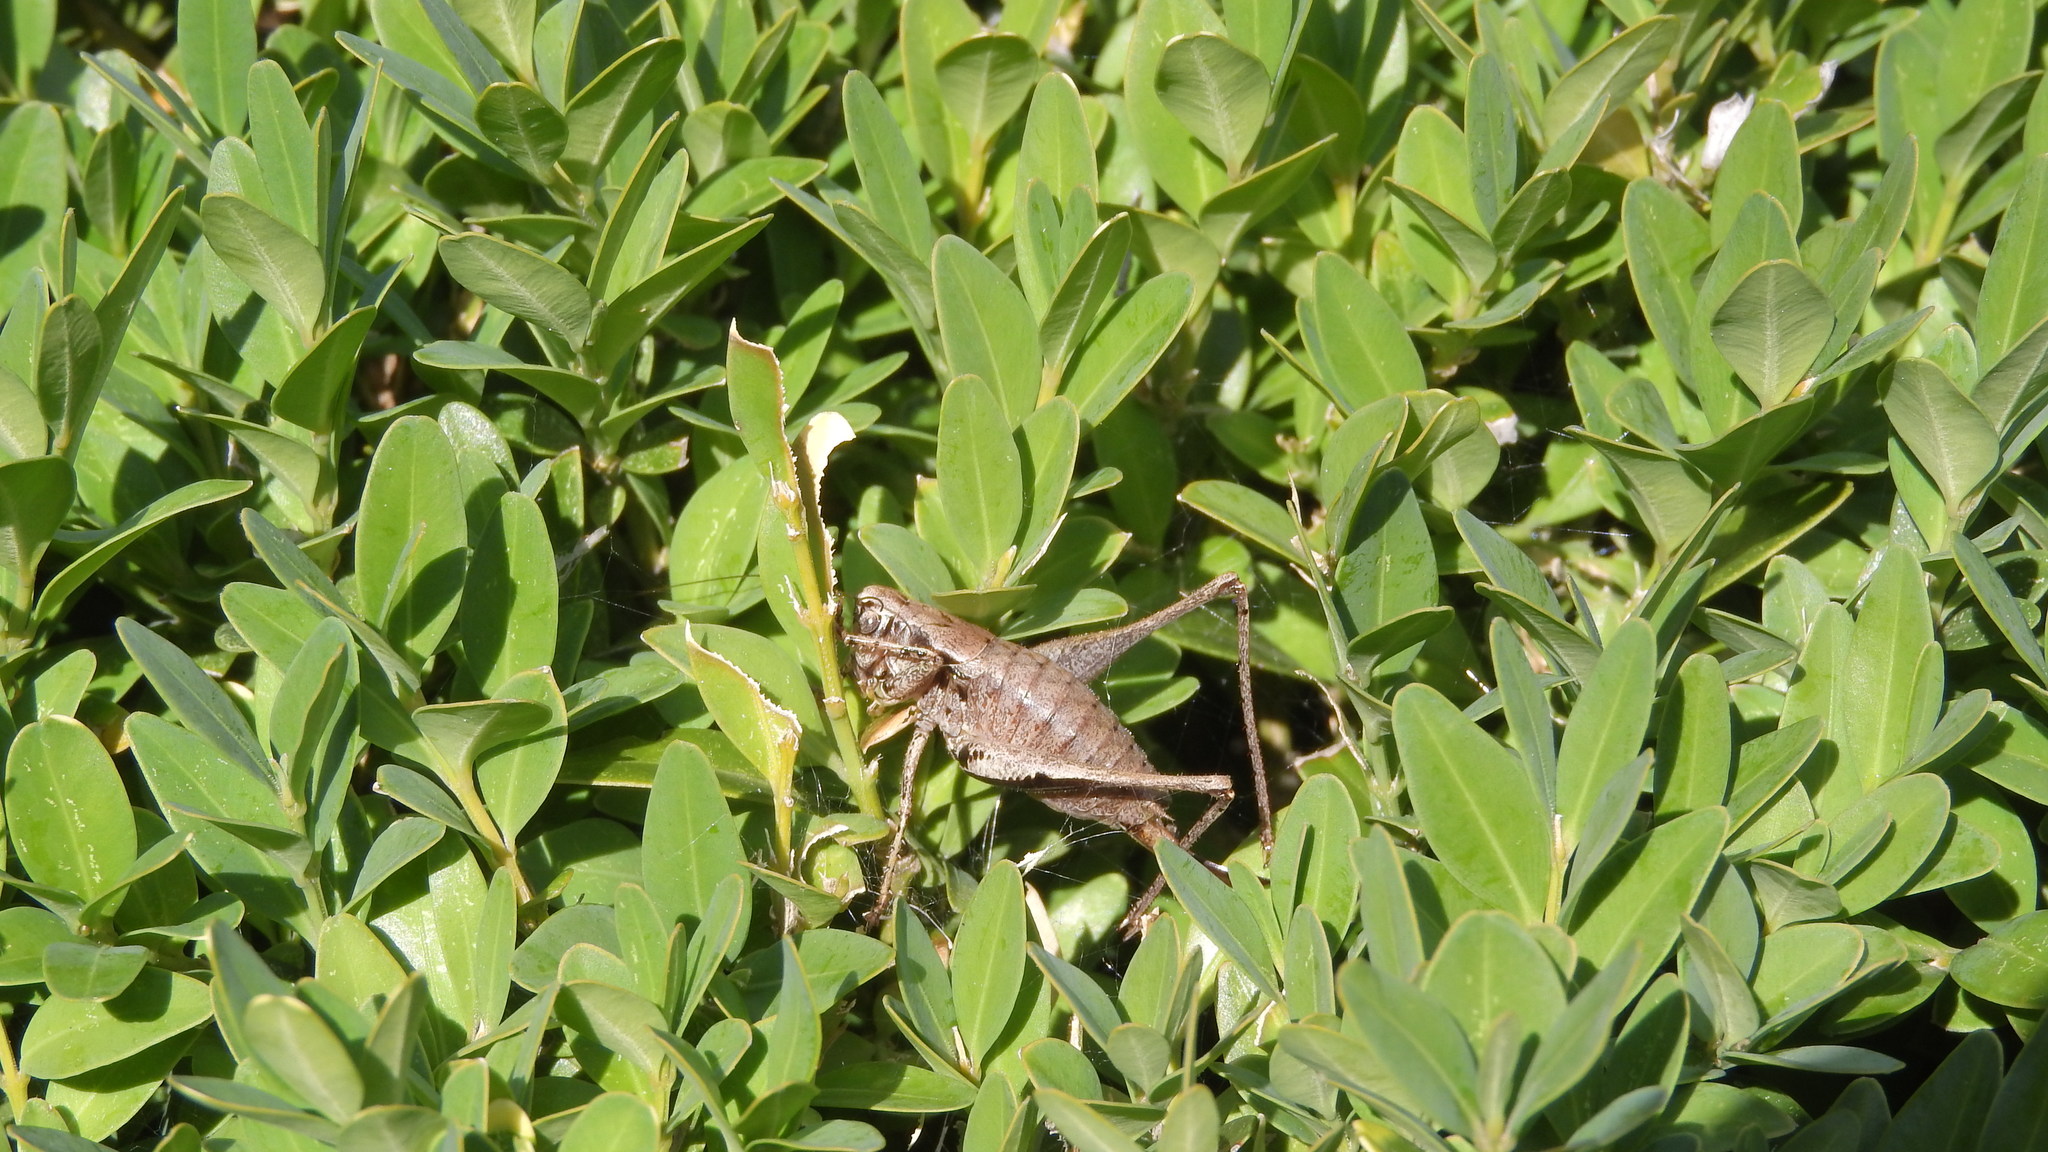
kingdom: Animalia
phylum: Arthropoda
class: Insecta
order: Orthoptera
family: Tettigoniidae
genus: Pholidoptera
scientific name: Pholidoptera griseoaptera
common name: Dark bush-cricket
